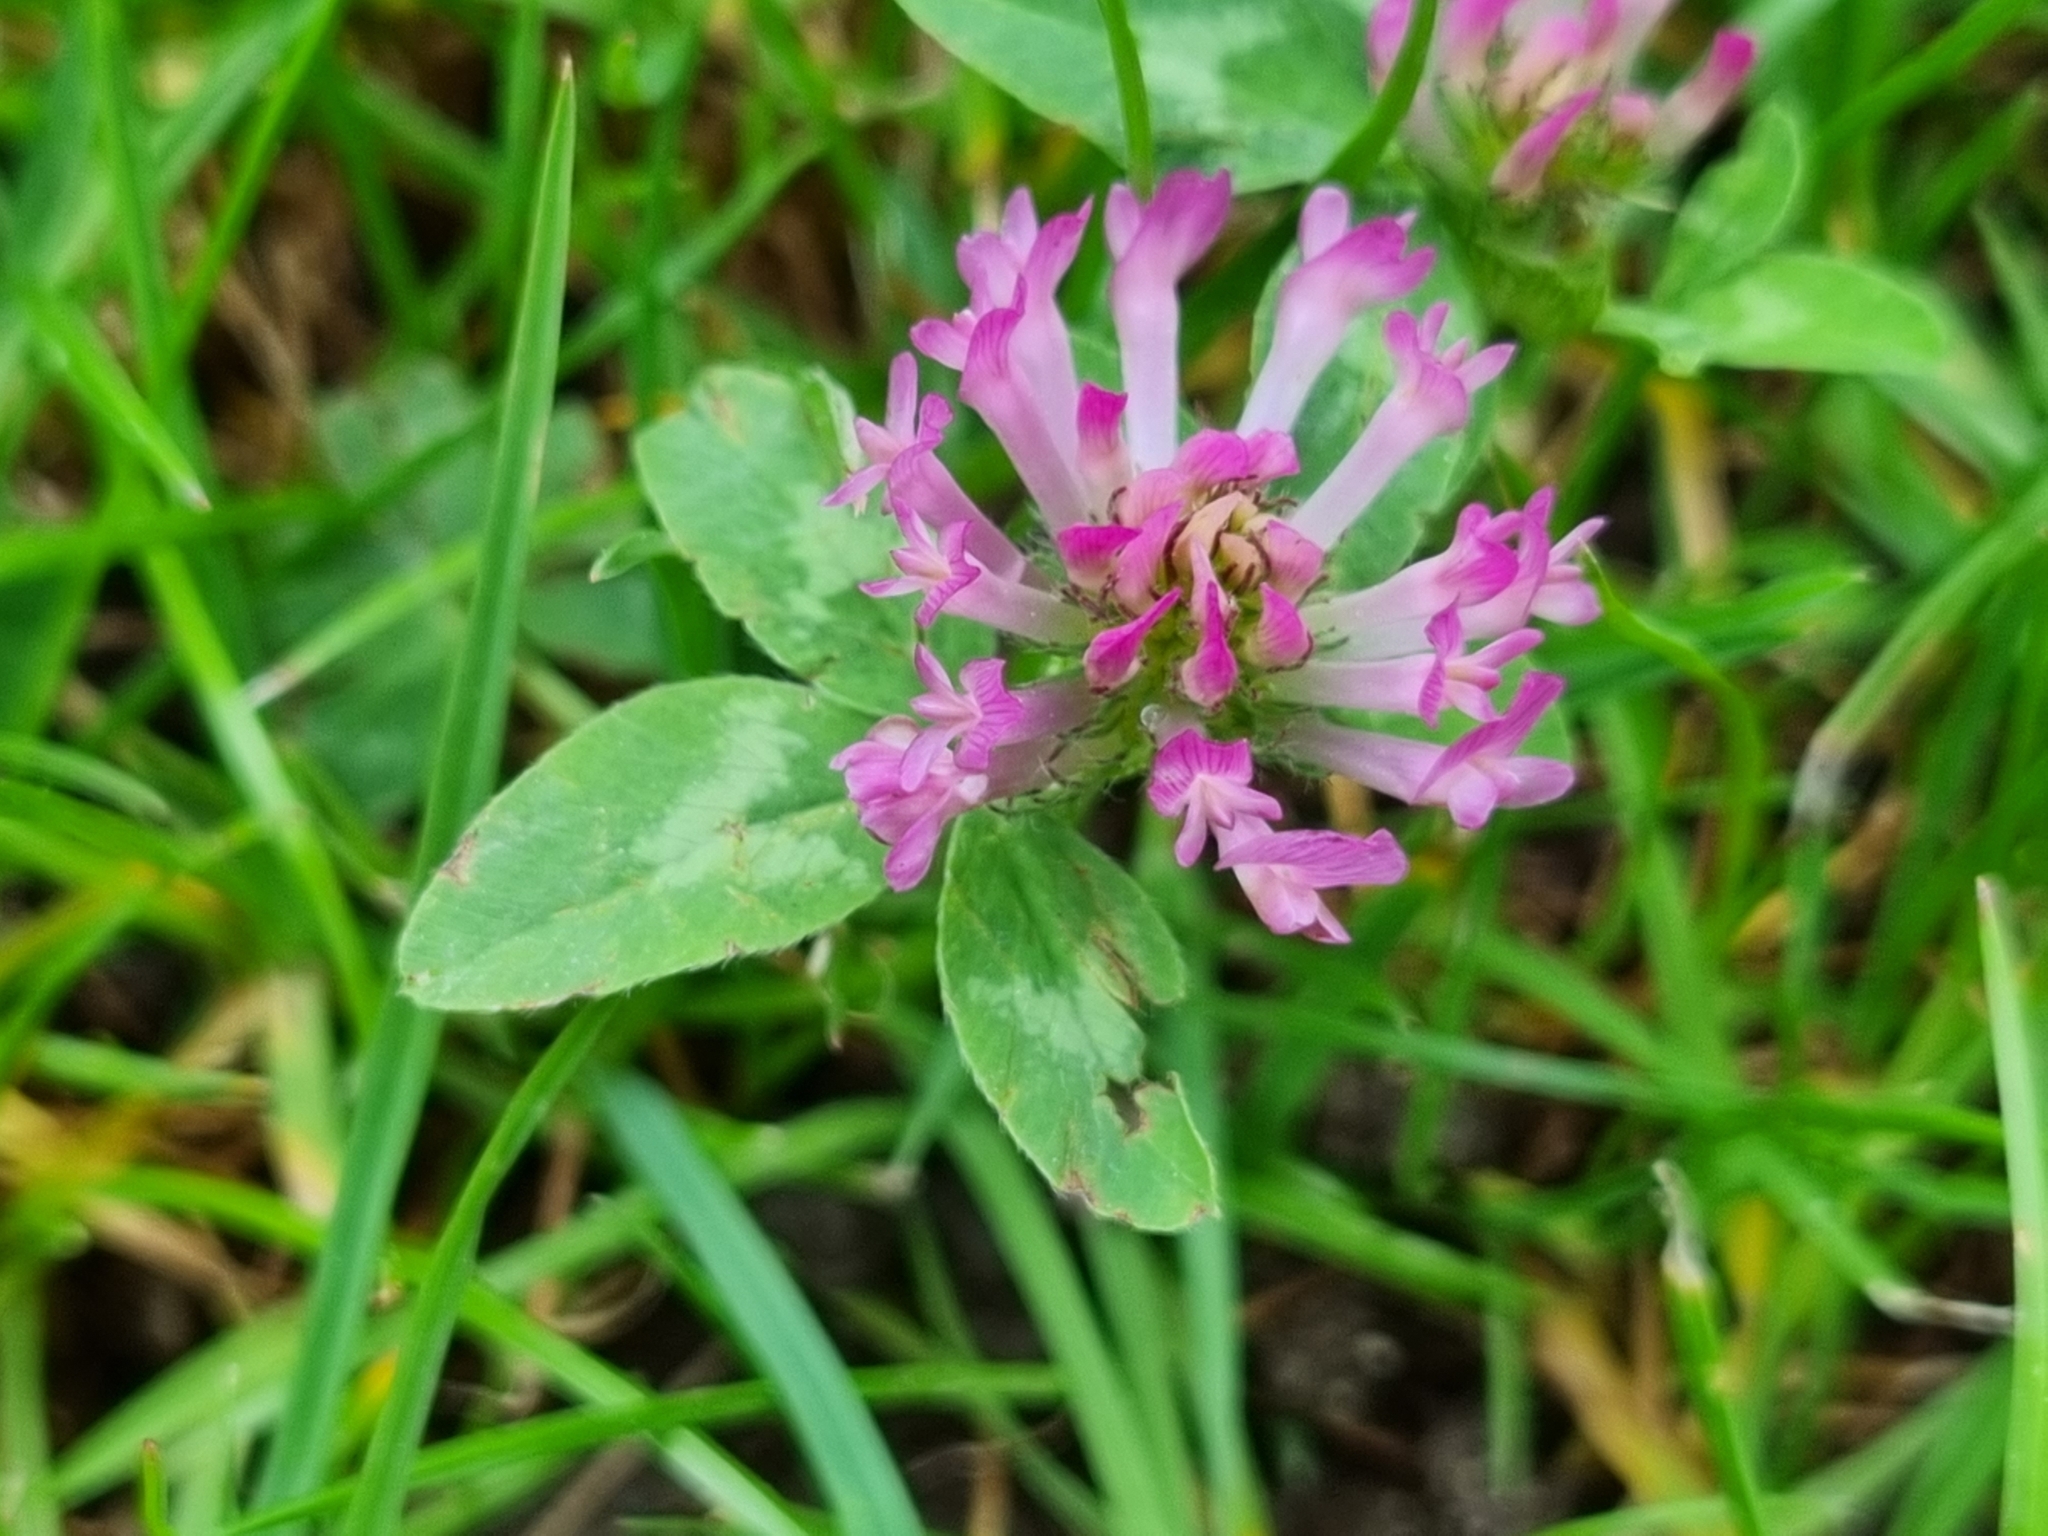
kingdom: Plantae
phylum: Tracheophyta
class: Magnoliopsida
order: Fabales
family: Fabaceae
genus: Trifolium
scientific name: Trifolium pratense
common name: Red clover
